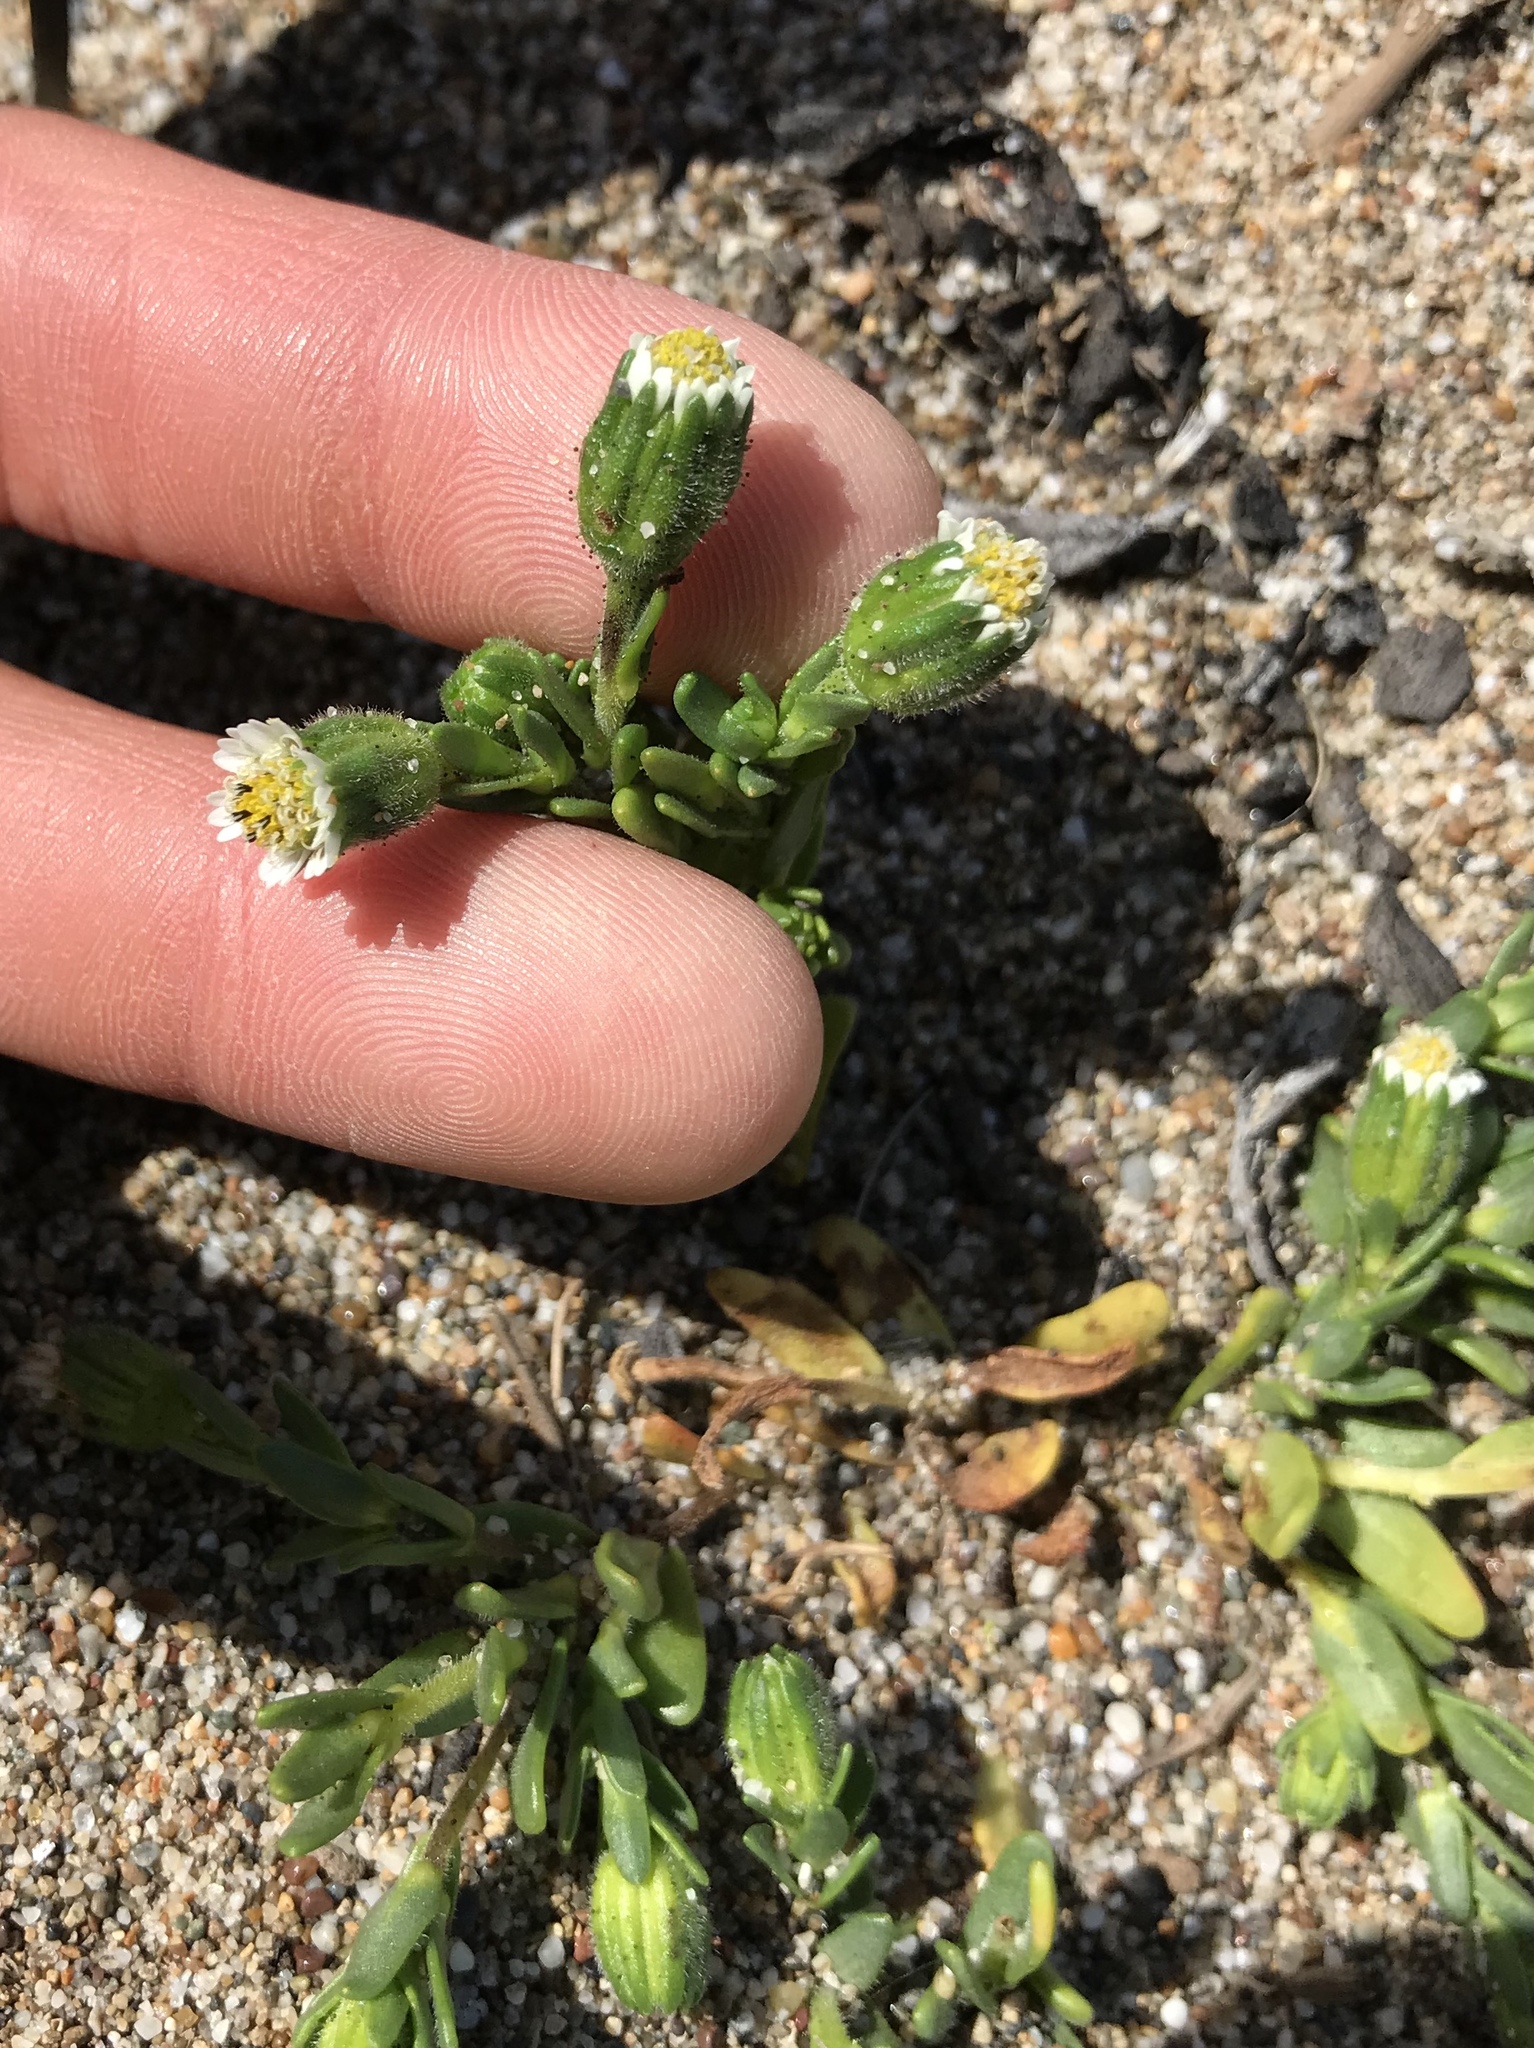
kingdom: Plantae
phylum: Tracheophyta
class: Magnoliopsida
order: Asterales
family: Asteraceae
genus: Layia
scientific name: Layia carnosa
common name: Beach layia
